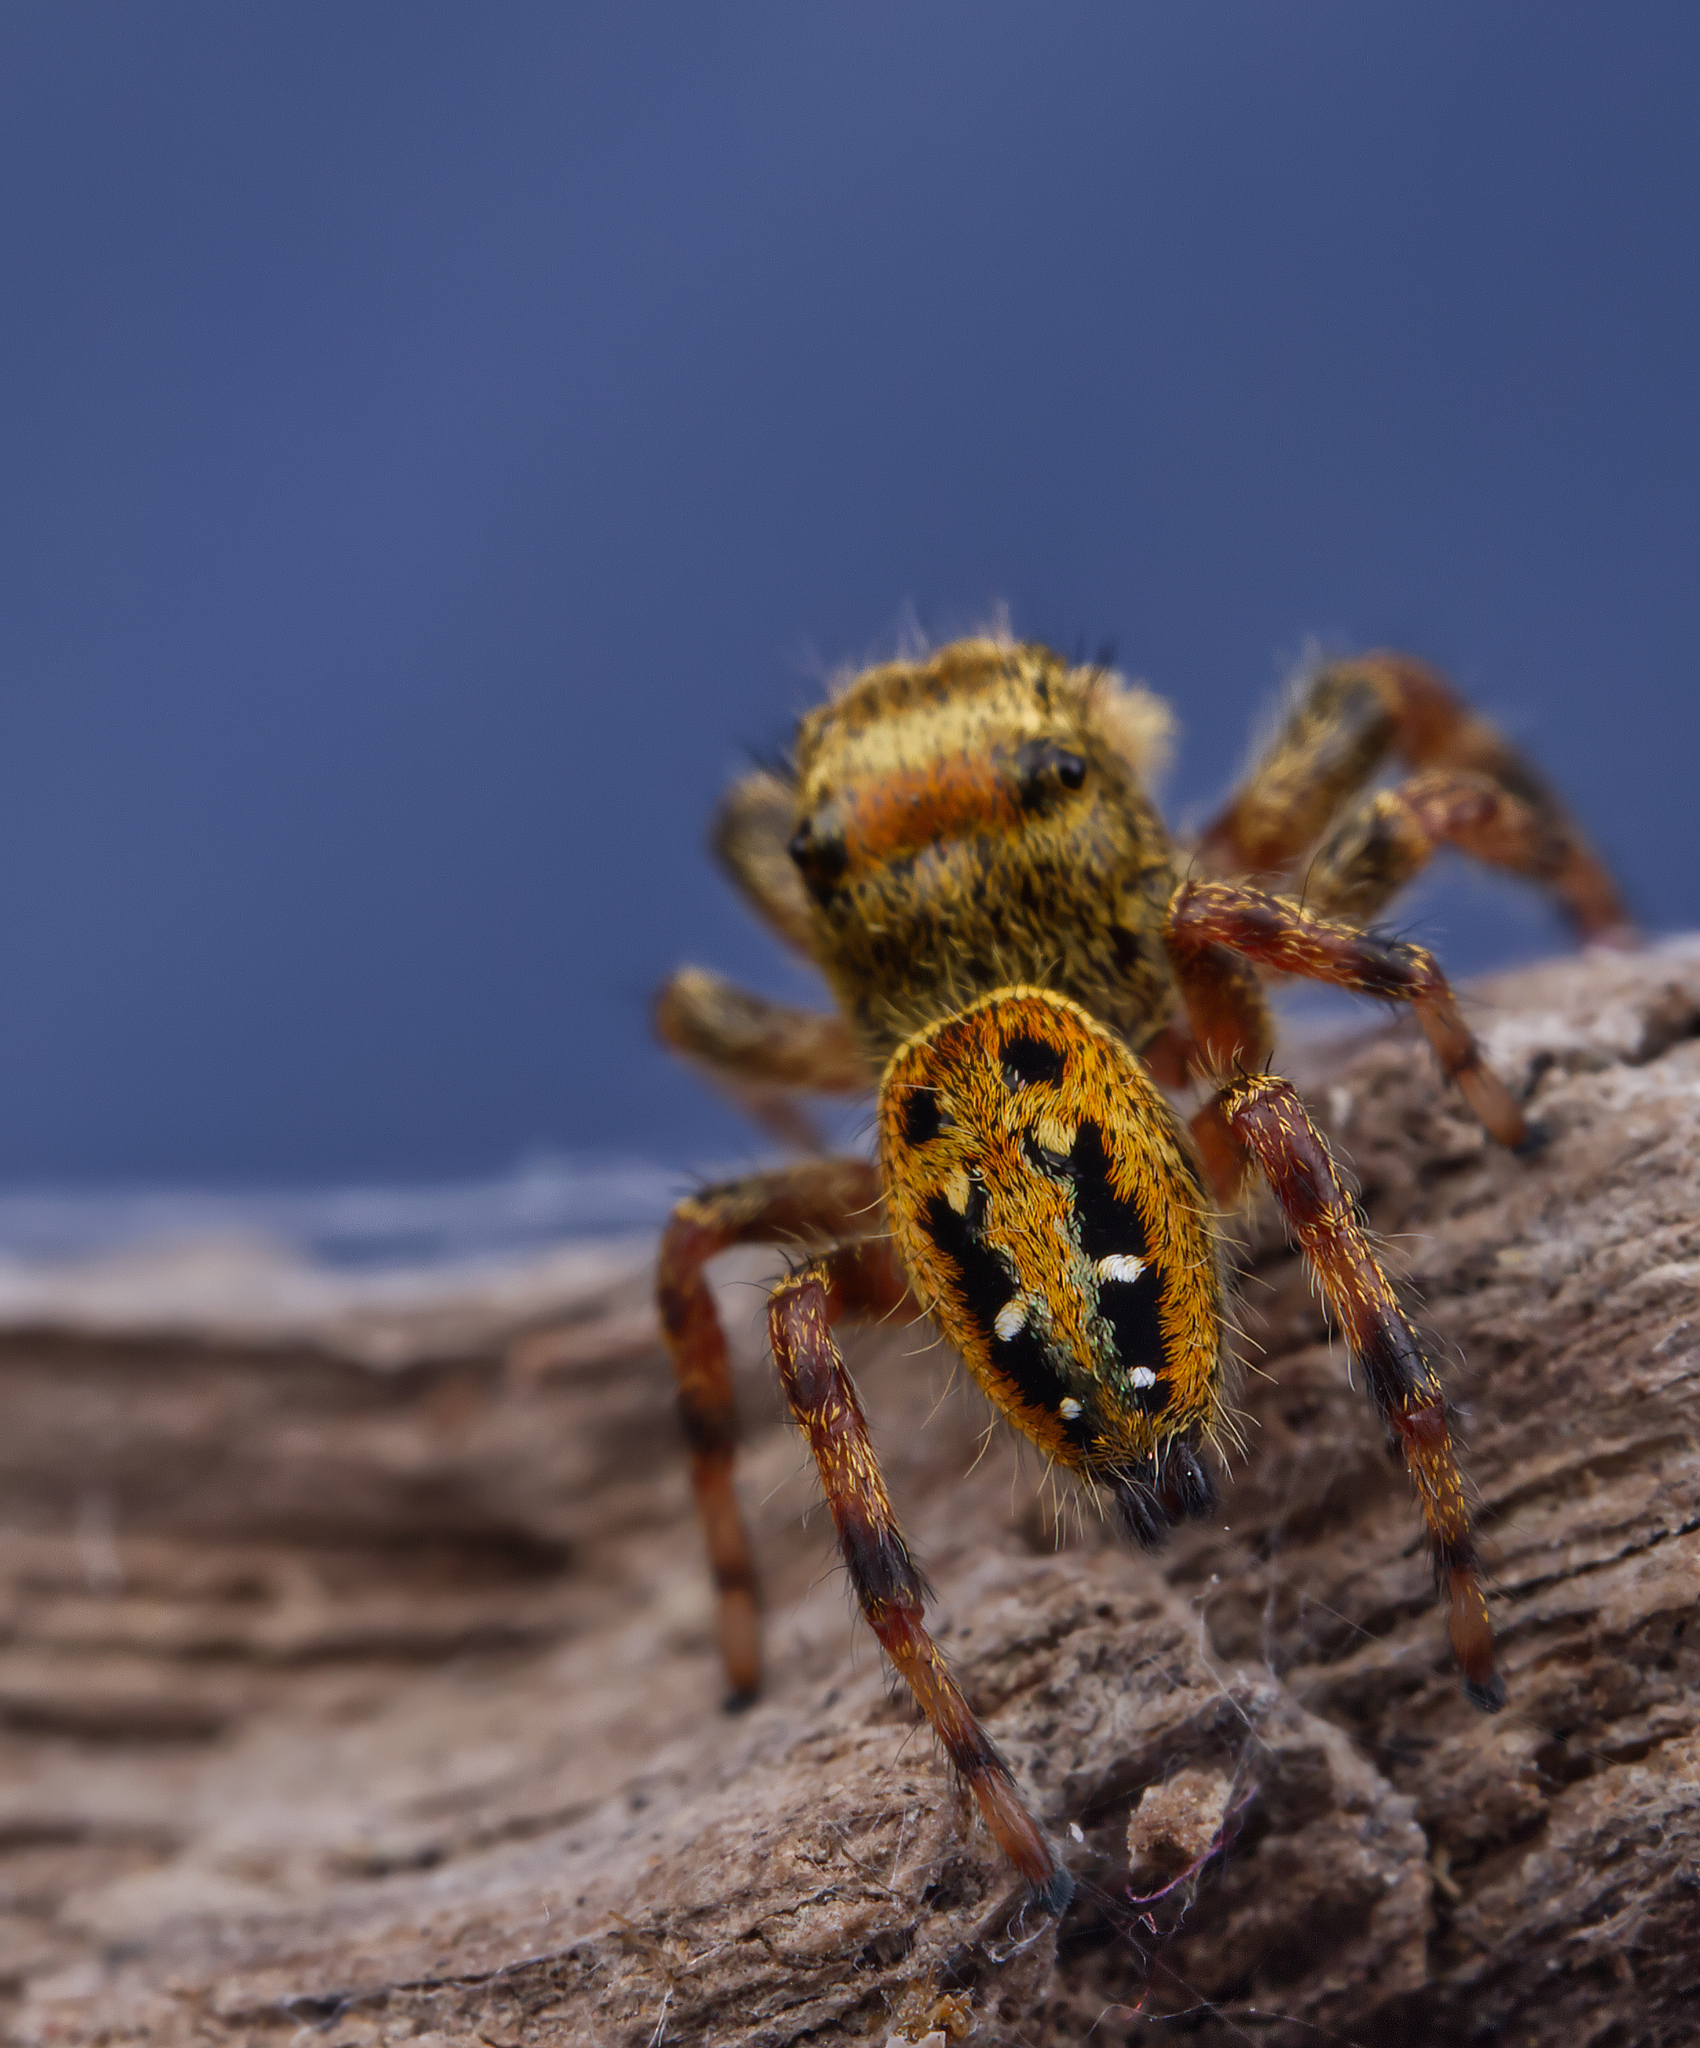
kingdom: Animalia
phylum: Arthropoda
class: Arachnida
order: Araneae
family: Salticidae
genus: Phidippus
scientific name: Phidippus clarus
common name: Brilliant jumping spider
